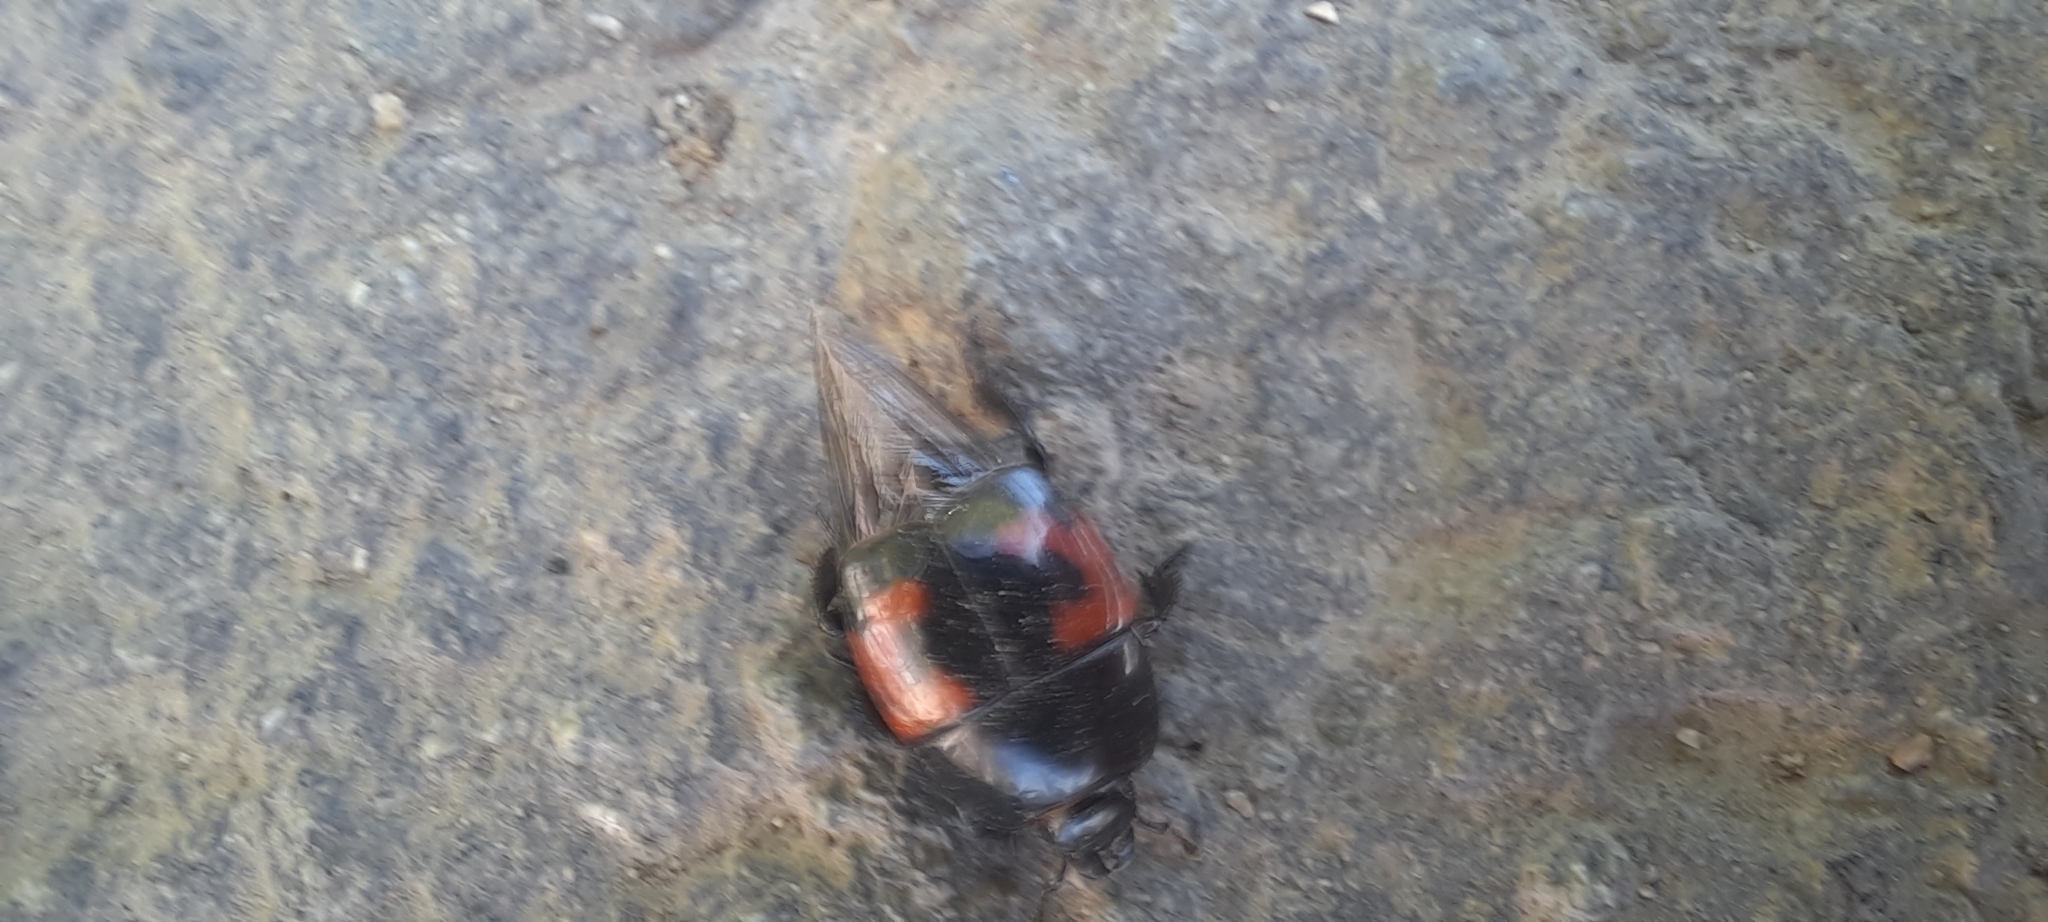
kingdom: Animalia
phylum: Arthropoda
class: Insecta
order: Coleoptera
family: Histeridae
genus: Hister
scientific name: Hister quadrimaculatus
